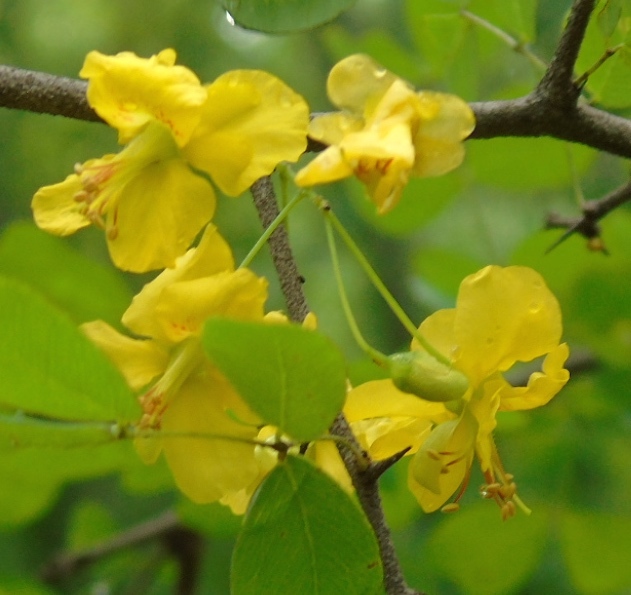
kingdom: Plantae
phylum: Tracheophyta
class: Magnoliopsida
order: Fabales
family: Fabaceae
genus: Haematoxylum
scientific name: Haematoxylum brasiletto
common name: Peachwood
